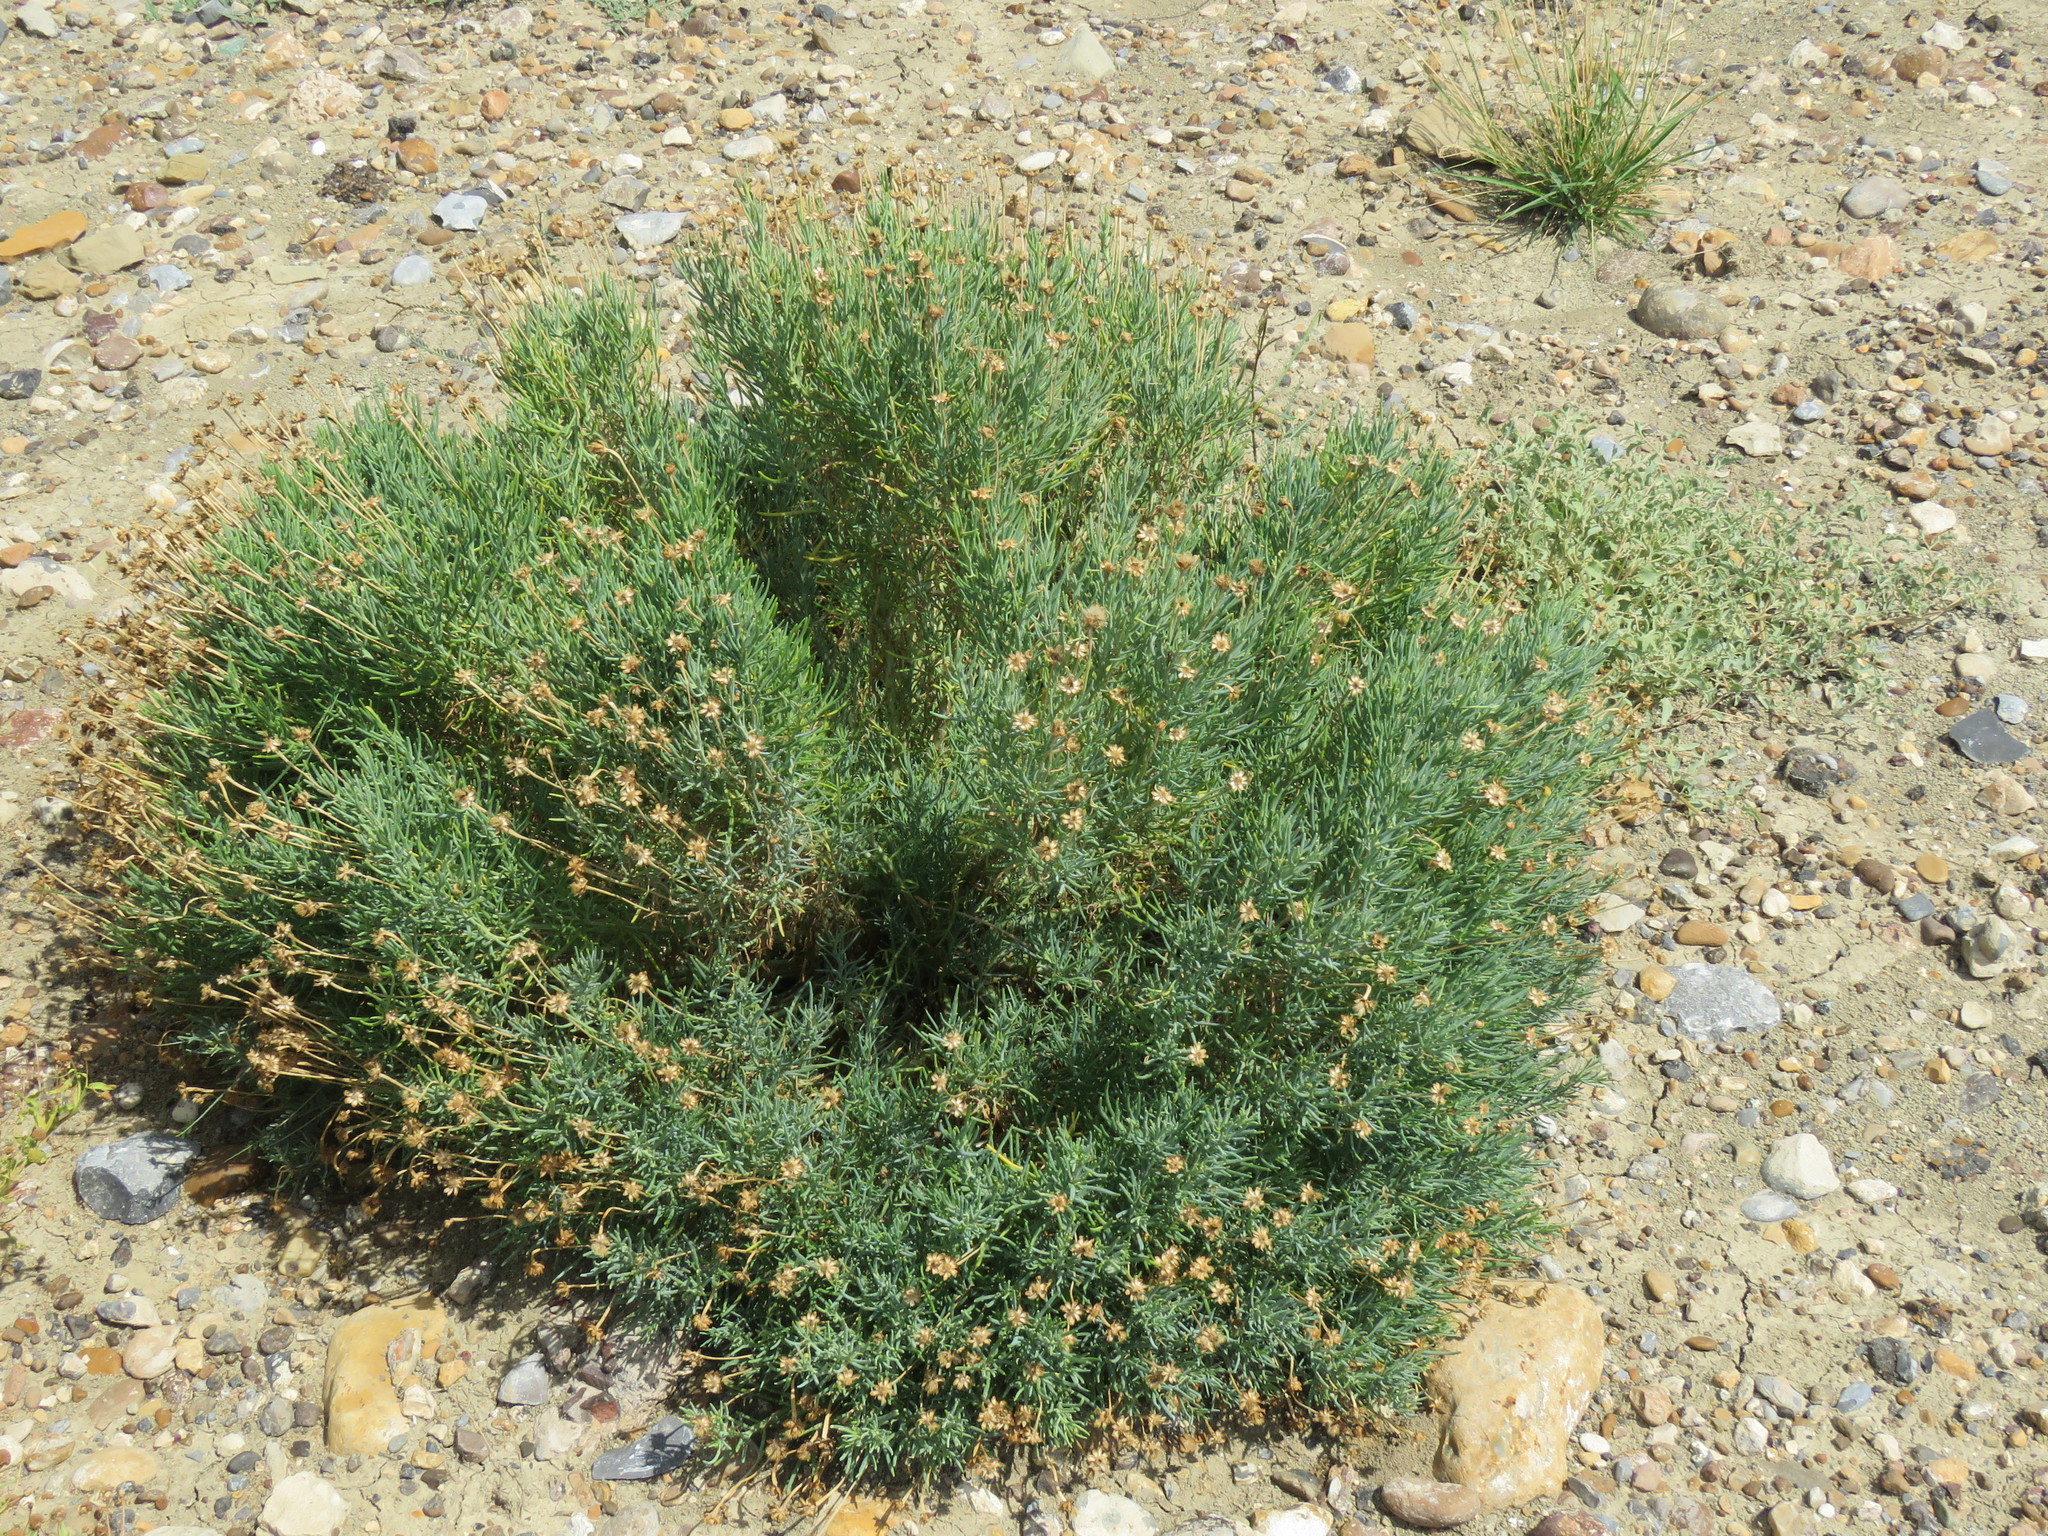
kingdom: Plantae
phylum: Tracheophyta
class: Magnoliopsida
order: Asterales
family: Asteraceae
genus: Clappia
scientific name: Clappia suaedifolia
